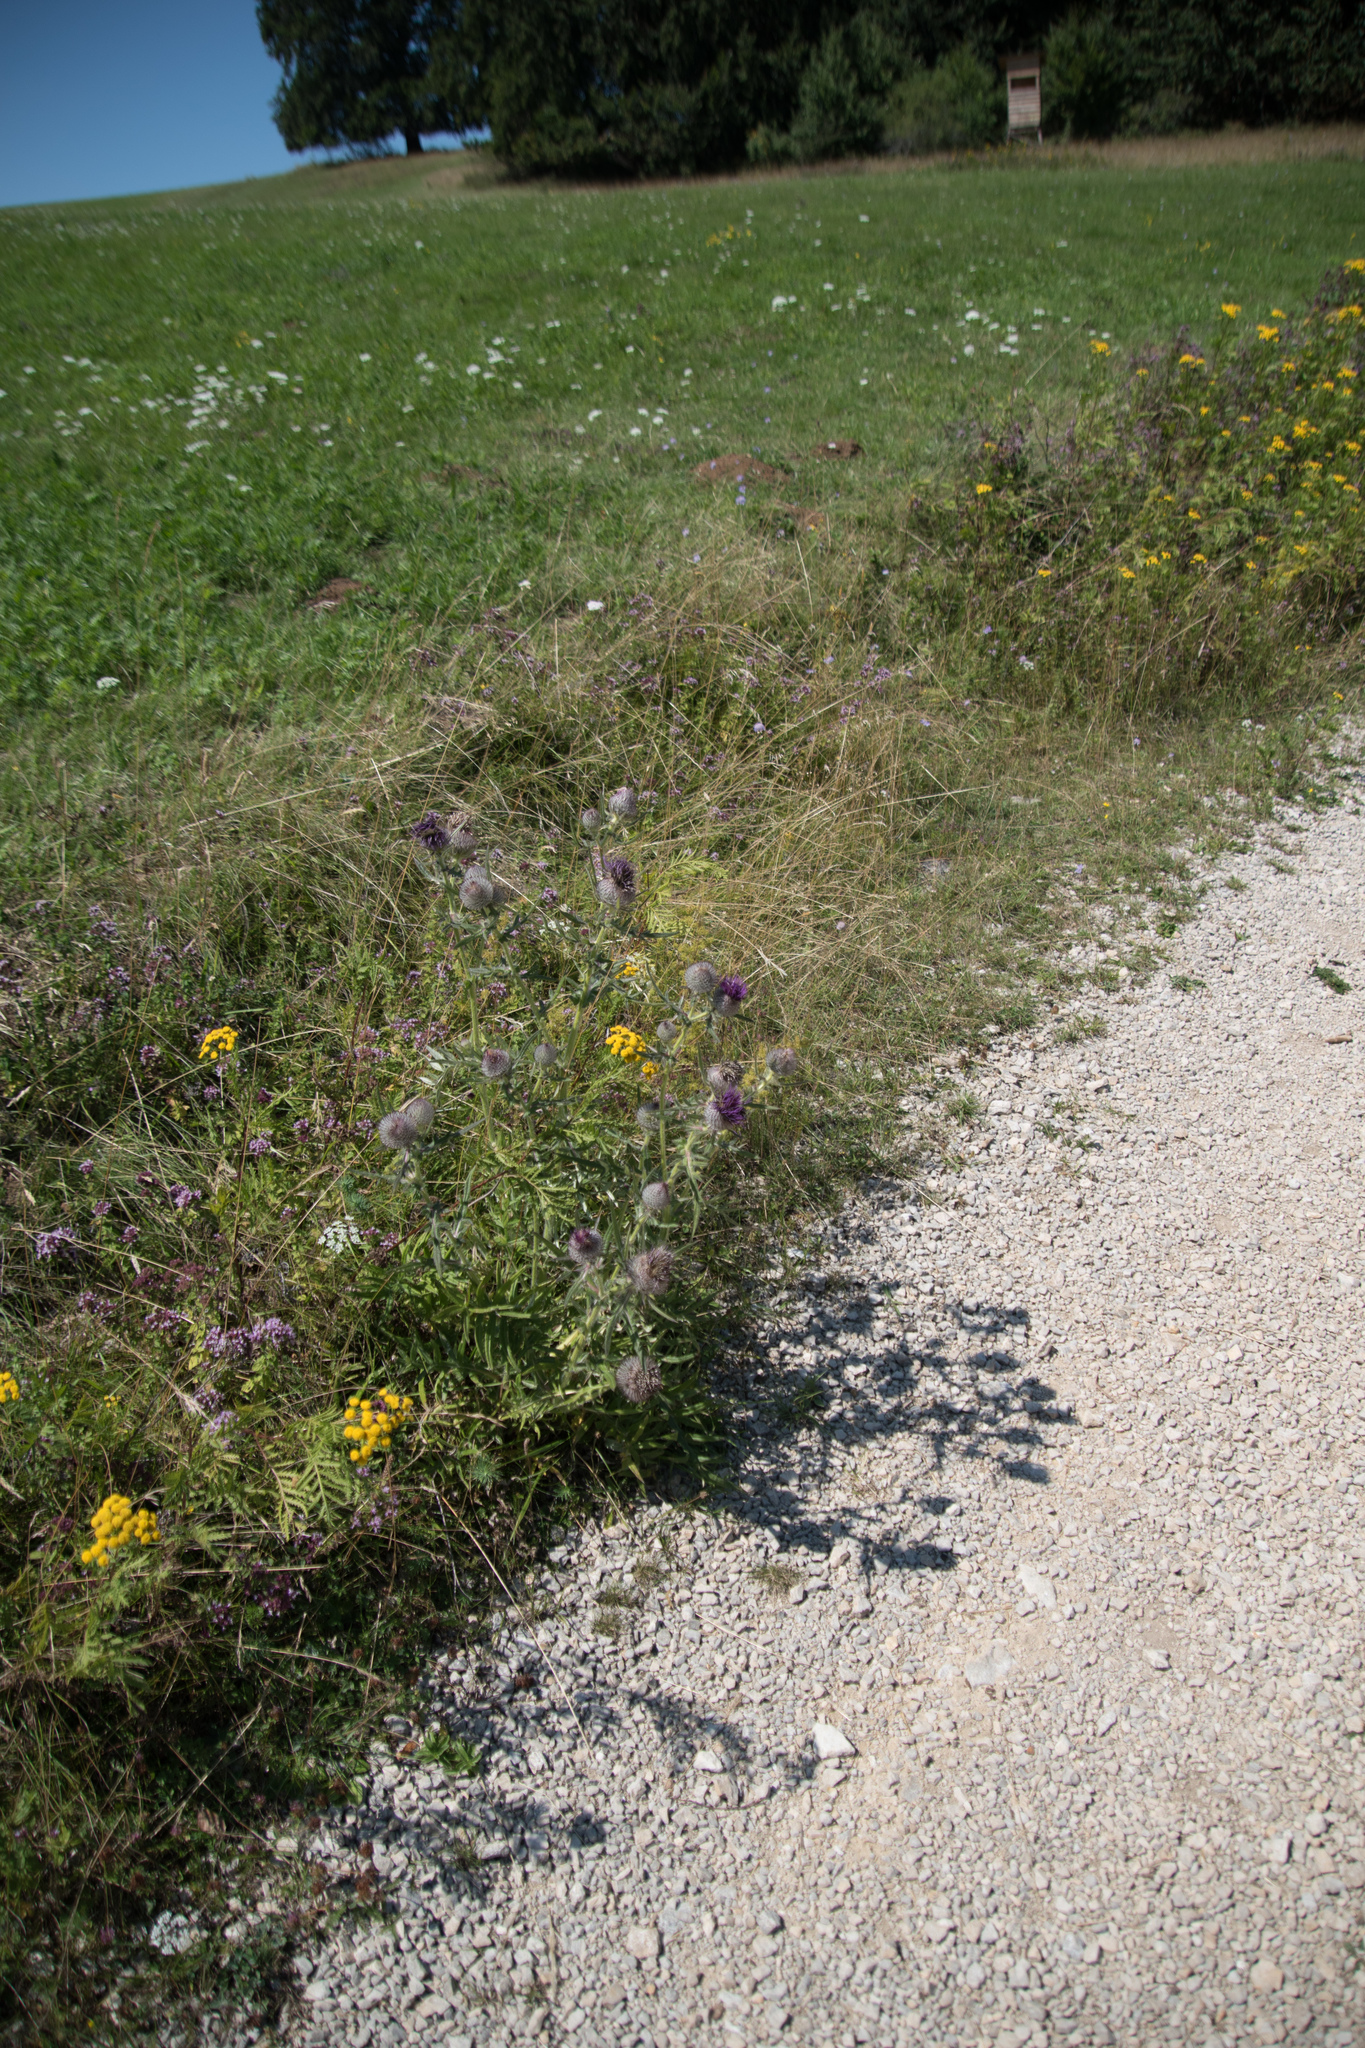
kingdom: Plantae
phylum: Tracheophyta
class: Magnoliopsida
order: Asterales
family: Asteraceae
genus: Lophiolepis
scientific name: Lophiolepis eriophora
